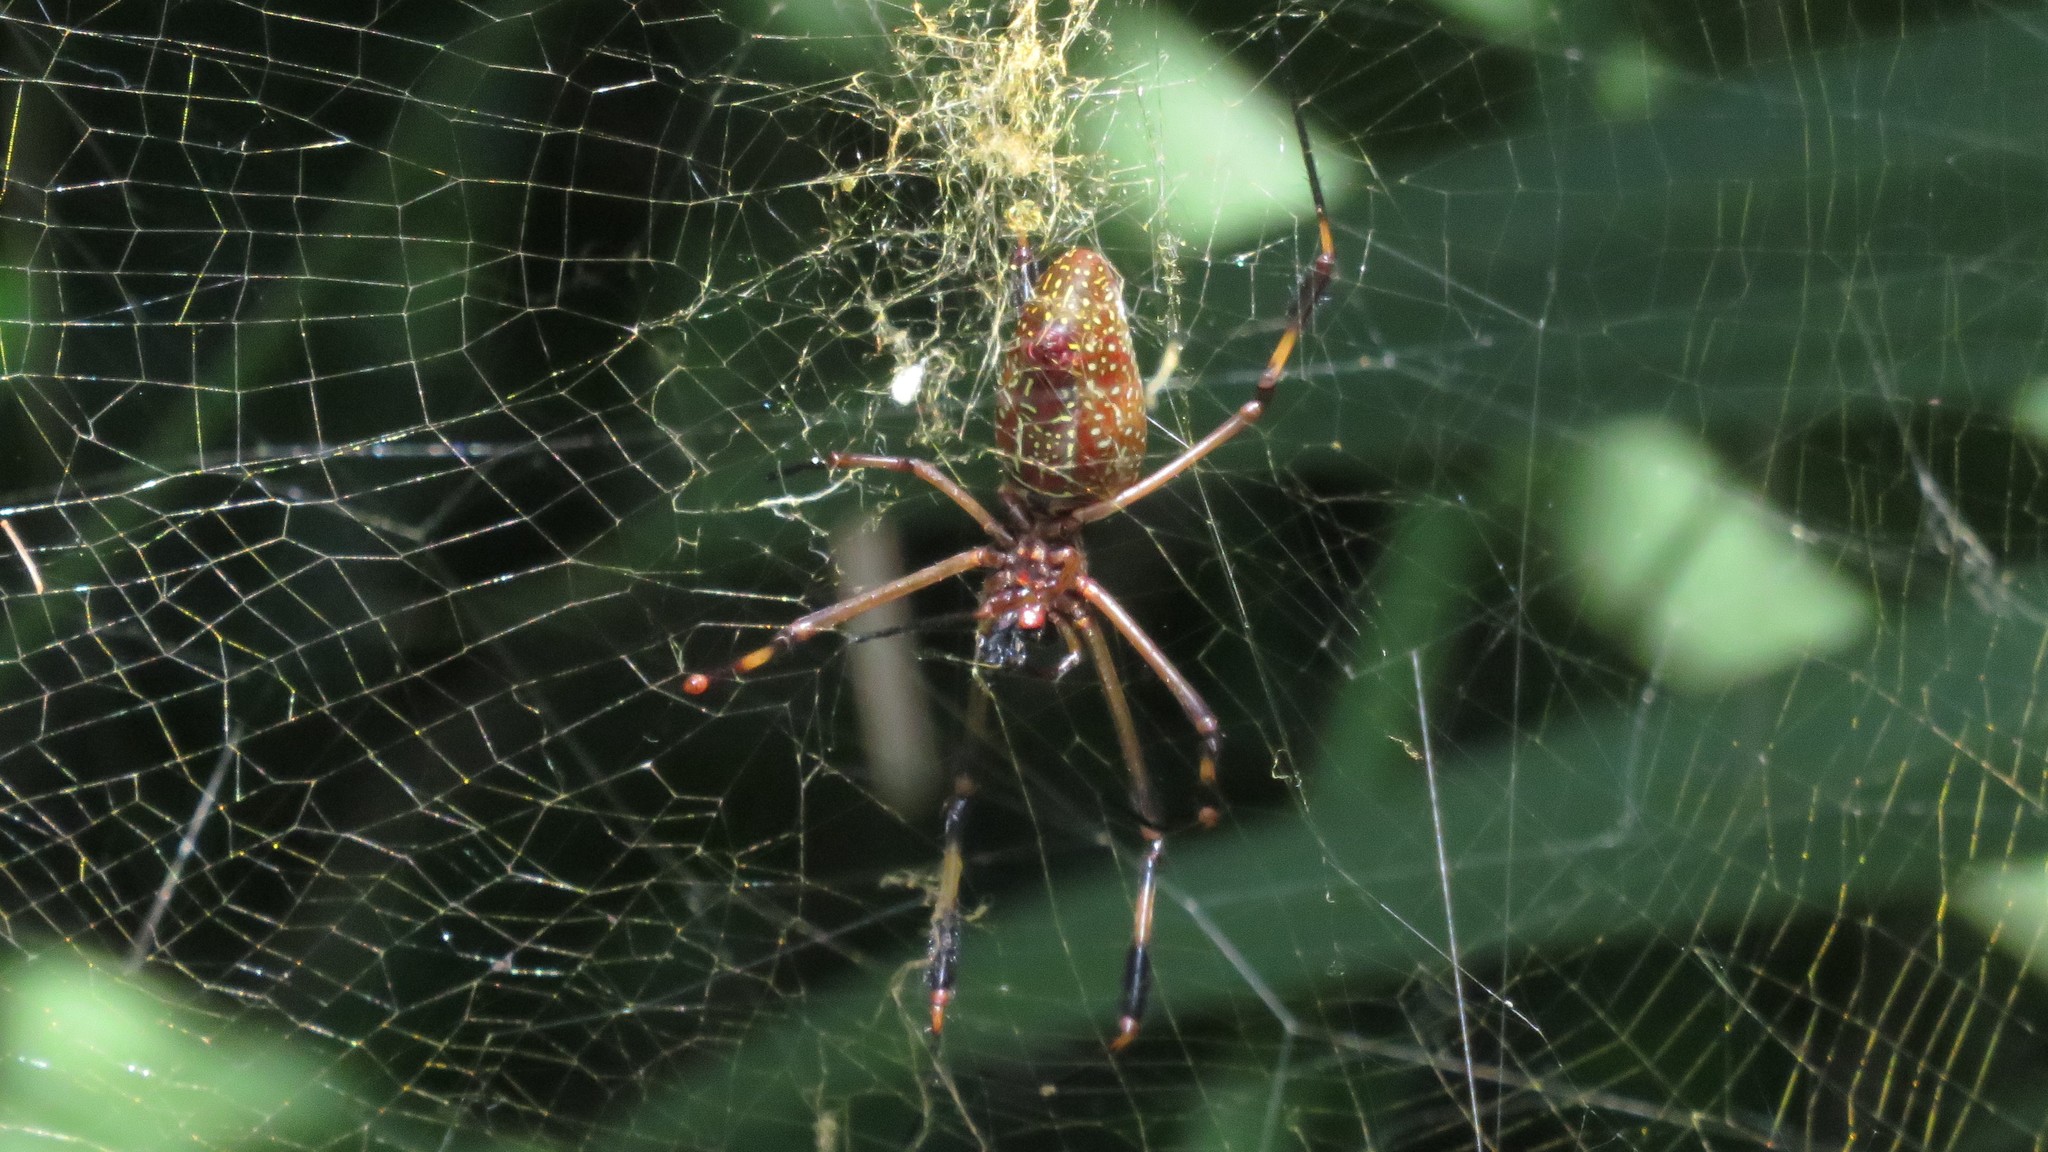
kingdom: Animalia
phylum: Arthropoda
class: Arachnida
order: Araneae
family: Araneidae
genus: Trichonephila
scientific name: Trichonephila clavipes
